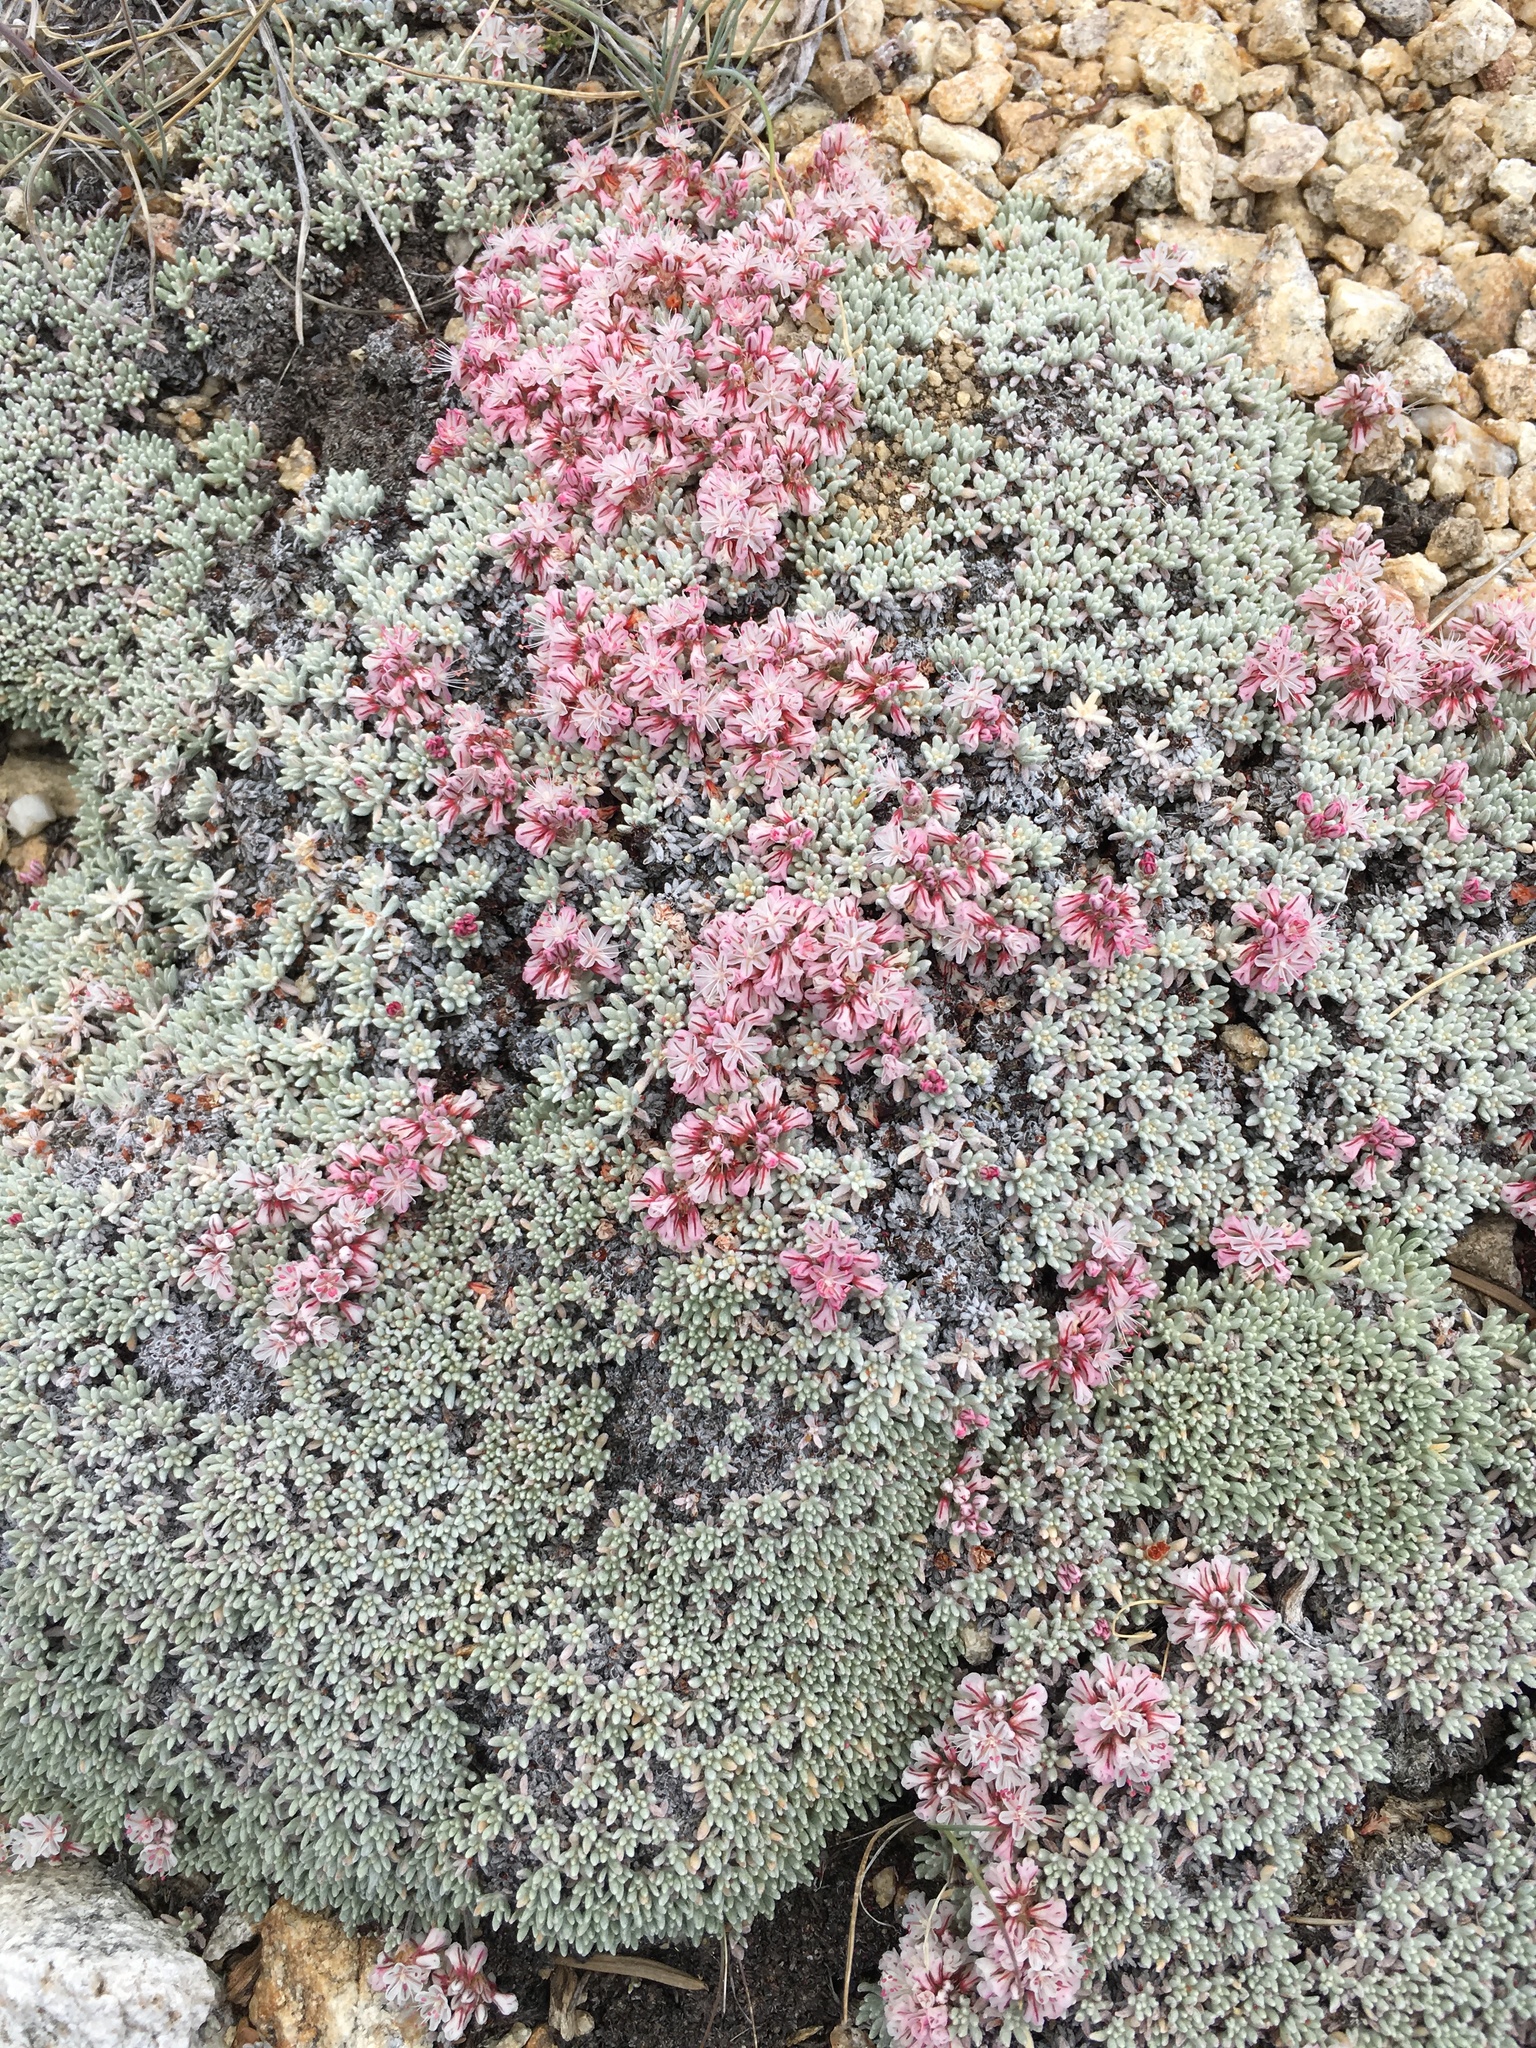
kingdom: Plantae
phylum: Tracheophyta
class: Magnoliopsida
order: Caryophyllales
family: Polygonaceae
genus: Eriogonum
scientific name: Eriogonum kennedyi
